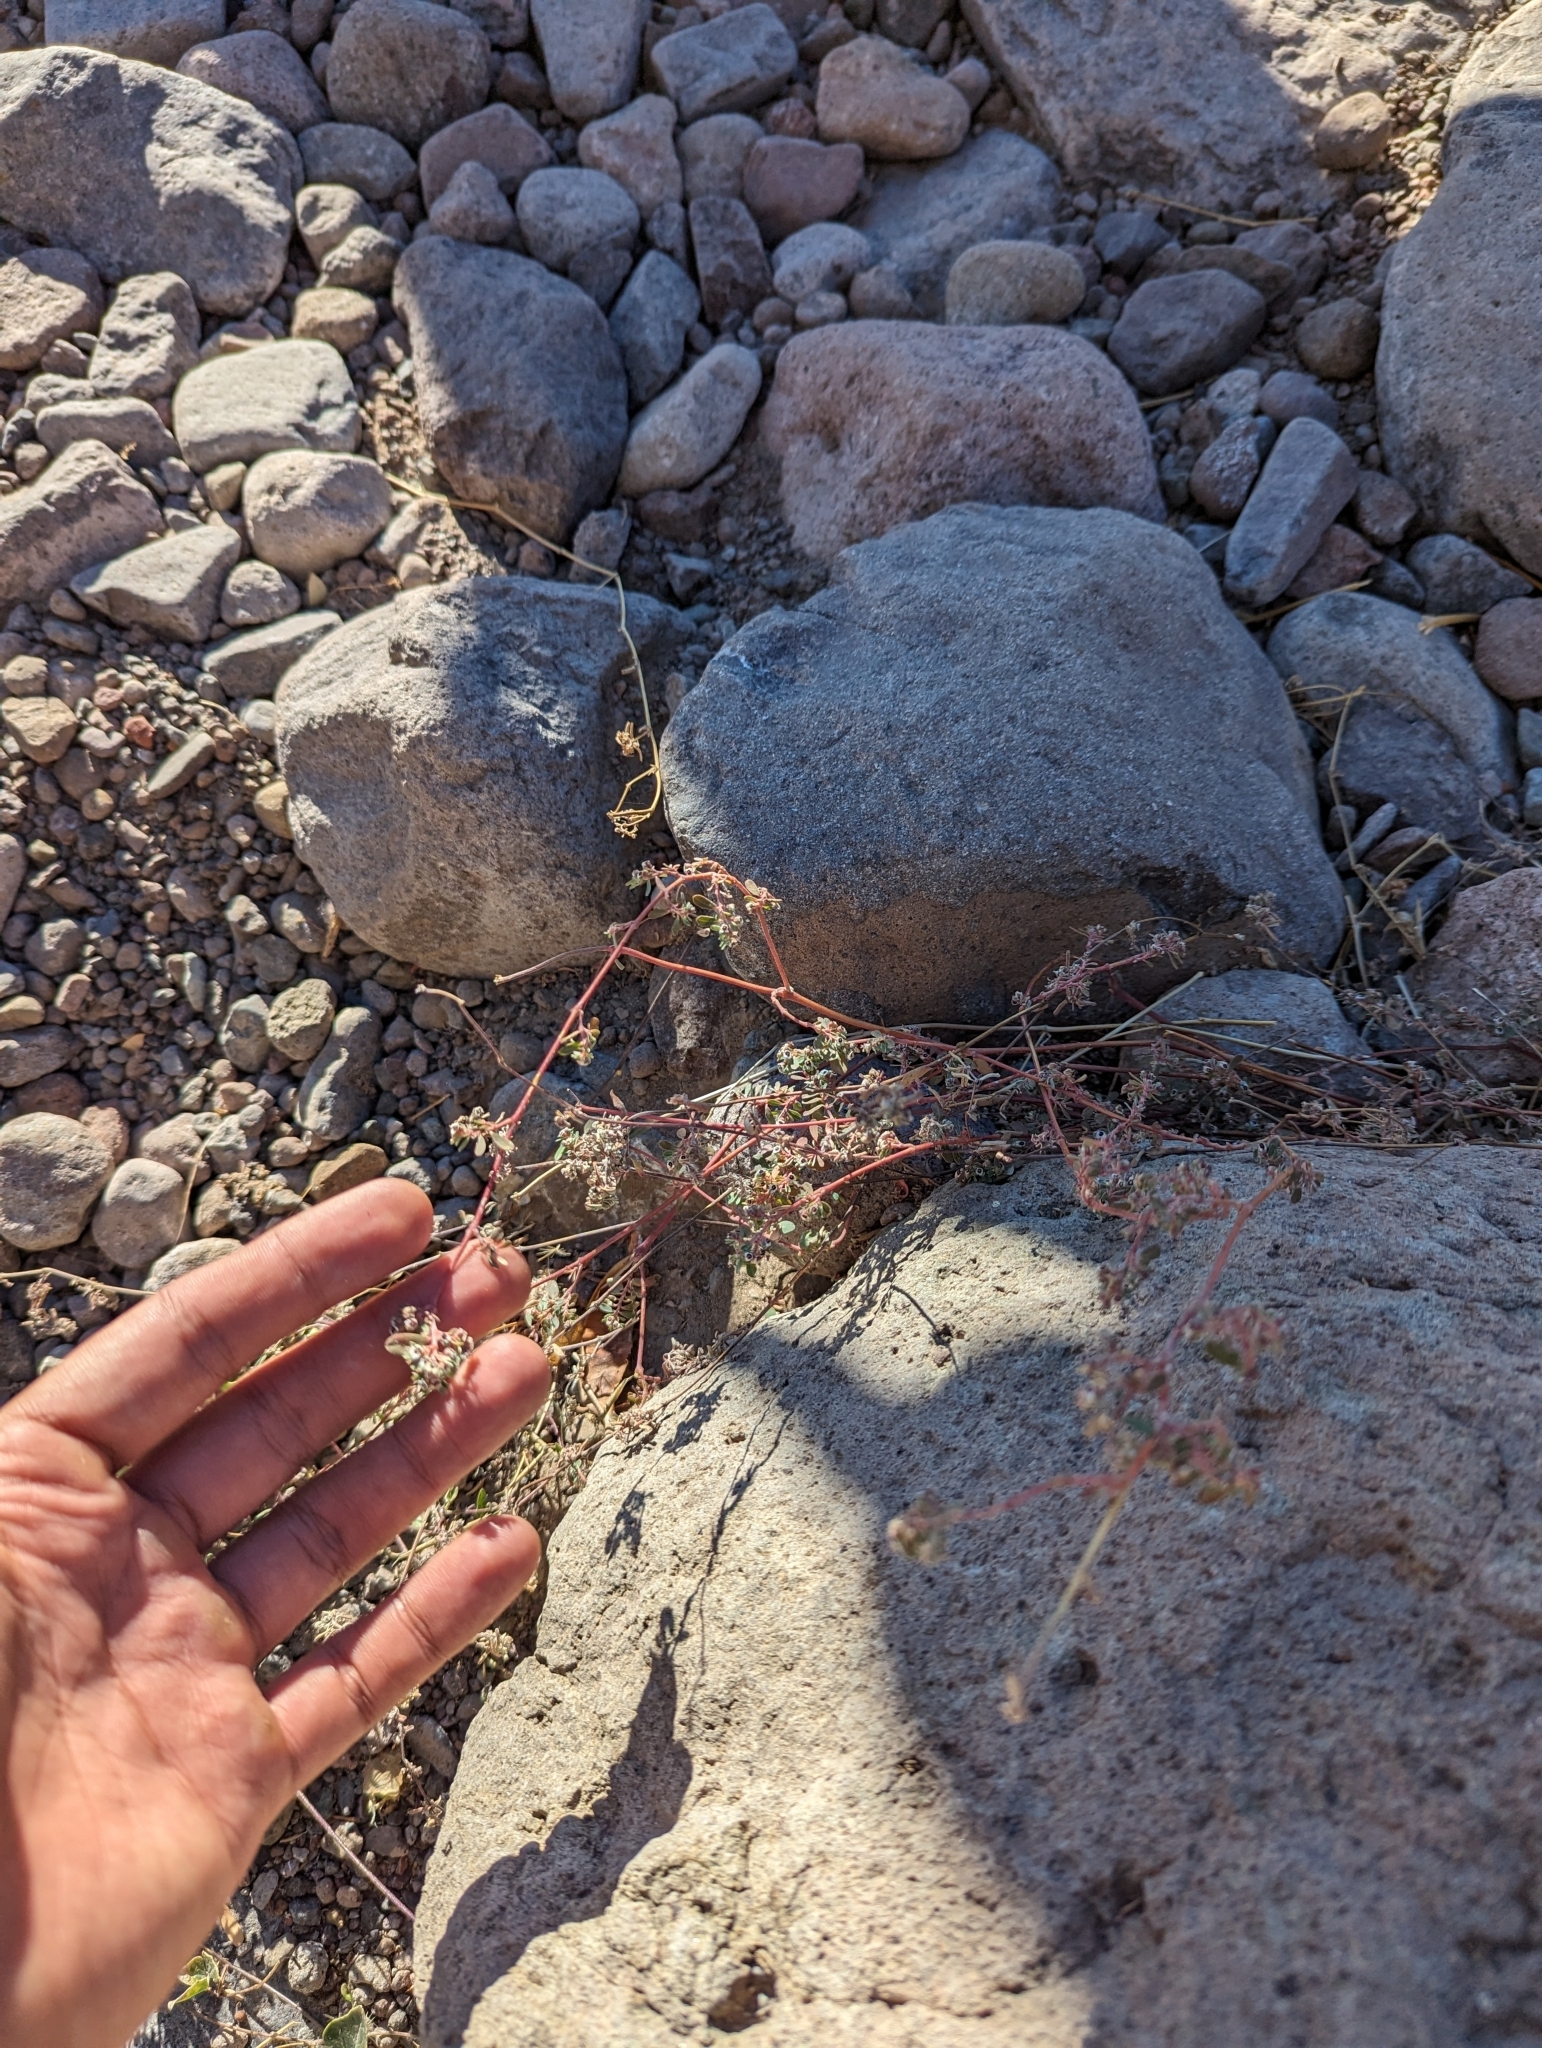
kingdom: Plantae
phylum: Tracheophyta
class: Magnoliopsida
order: Malpighiales
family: Euphorbiaceae
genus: Euphorbia
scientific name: Euphorbia pediculifera
